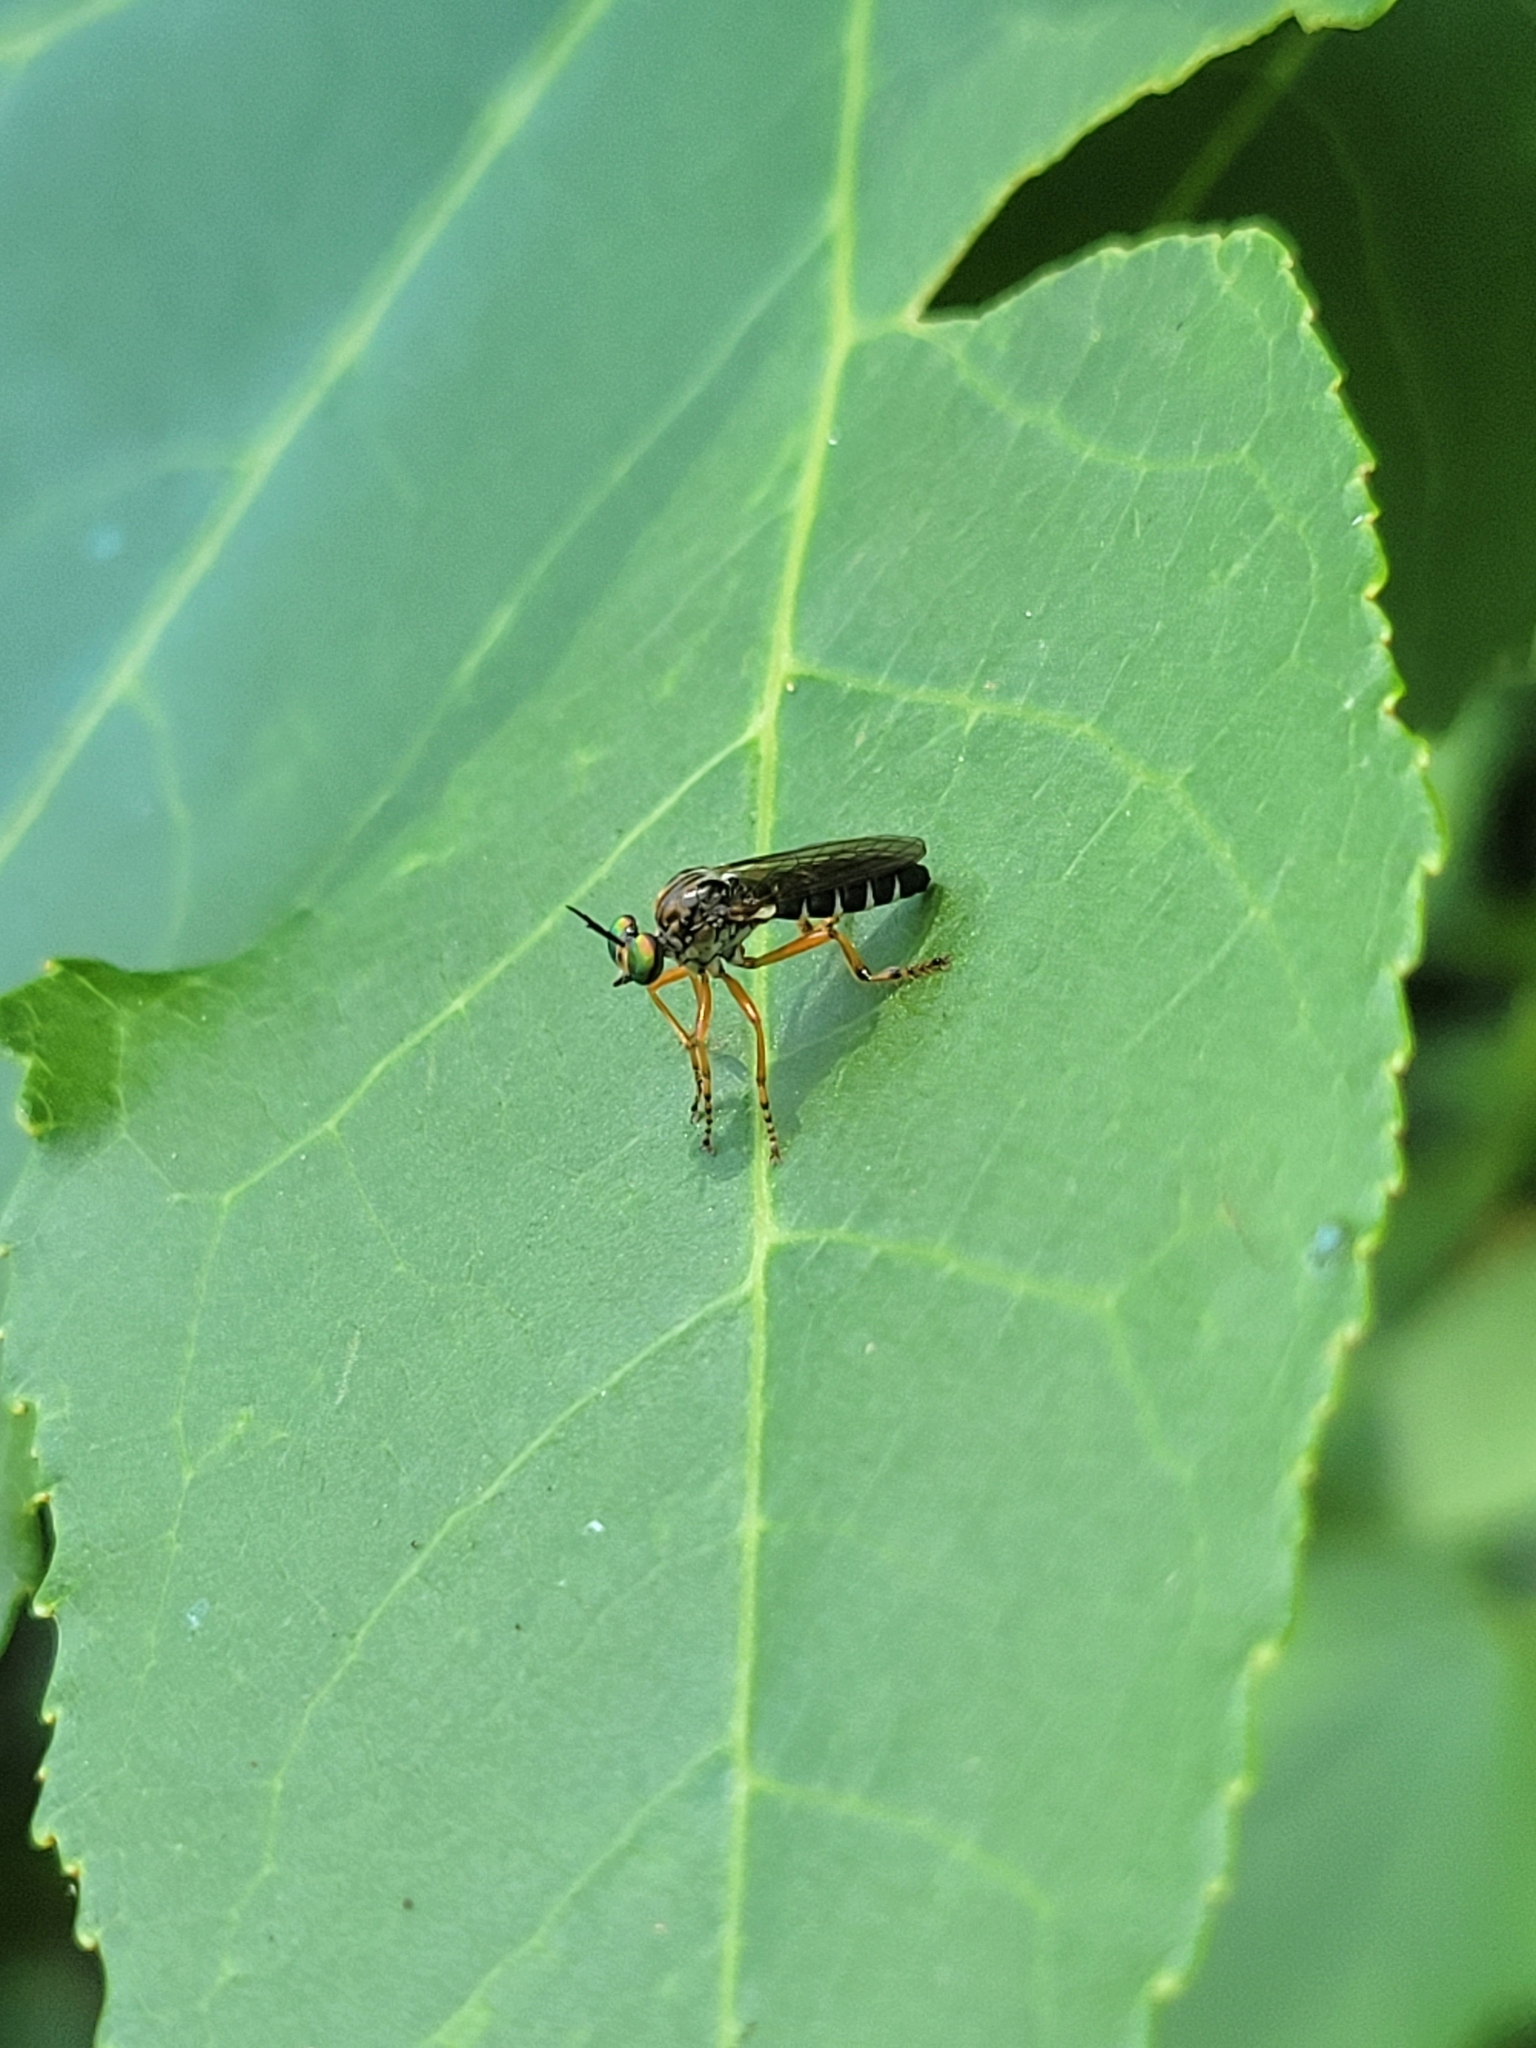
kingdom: Animalia
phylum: Arthropoda
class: Insecta
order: Diptera
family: Asilidae
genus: Taracticus
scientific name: Taracticus octopunctatus
